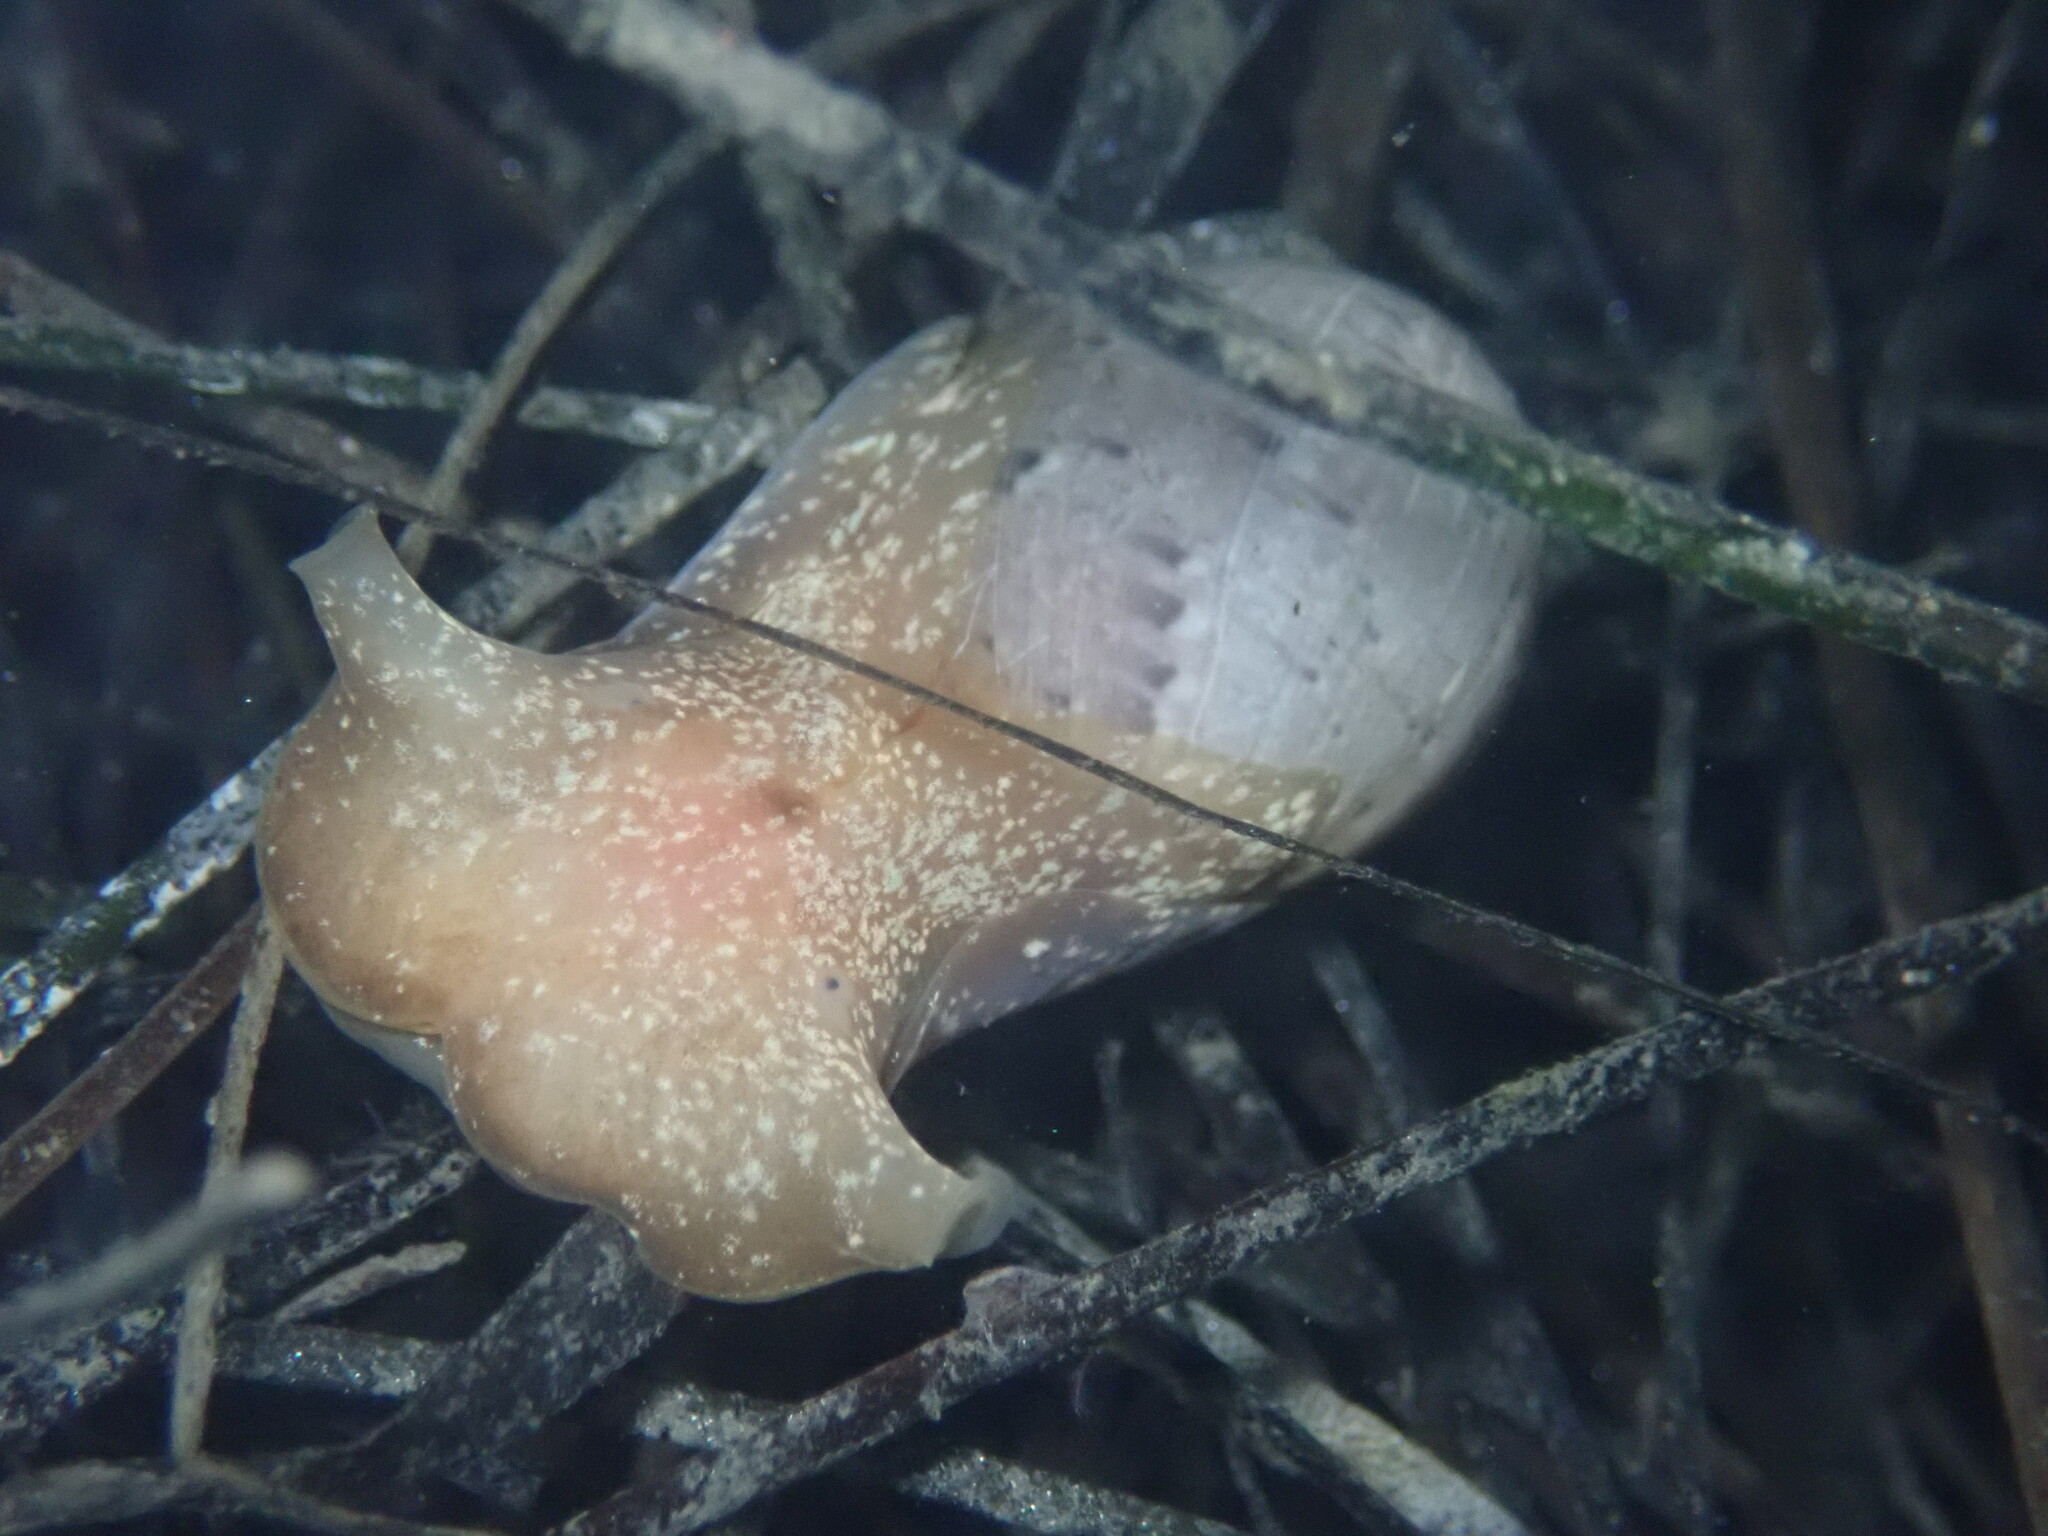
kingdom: Animalia
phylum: Mollusca
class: Gastropoda
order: Cephalaspidea
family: Bullidae
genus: Bulla
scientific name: Bulla gouldiana
